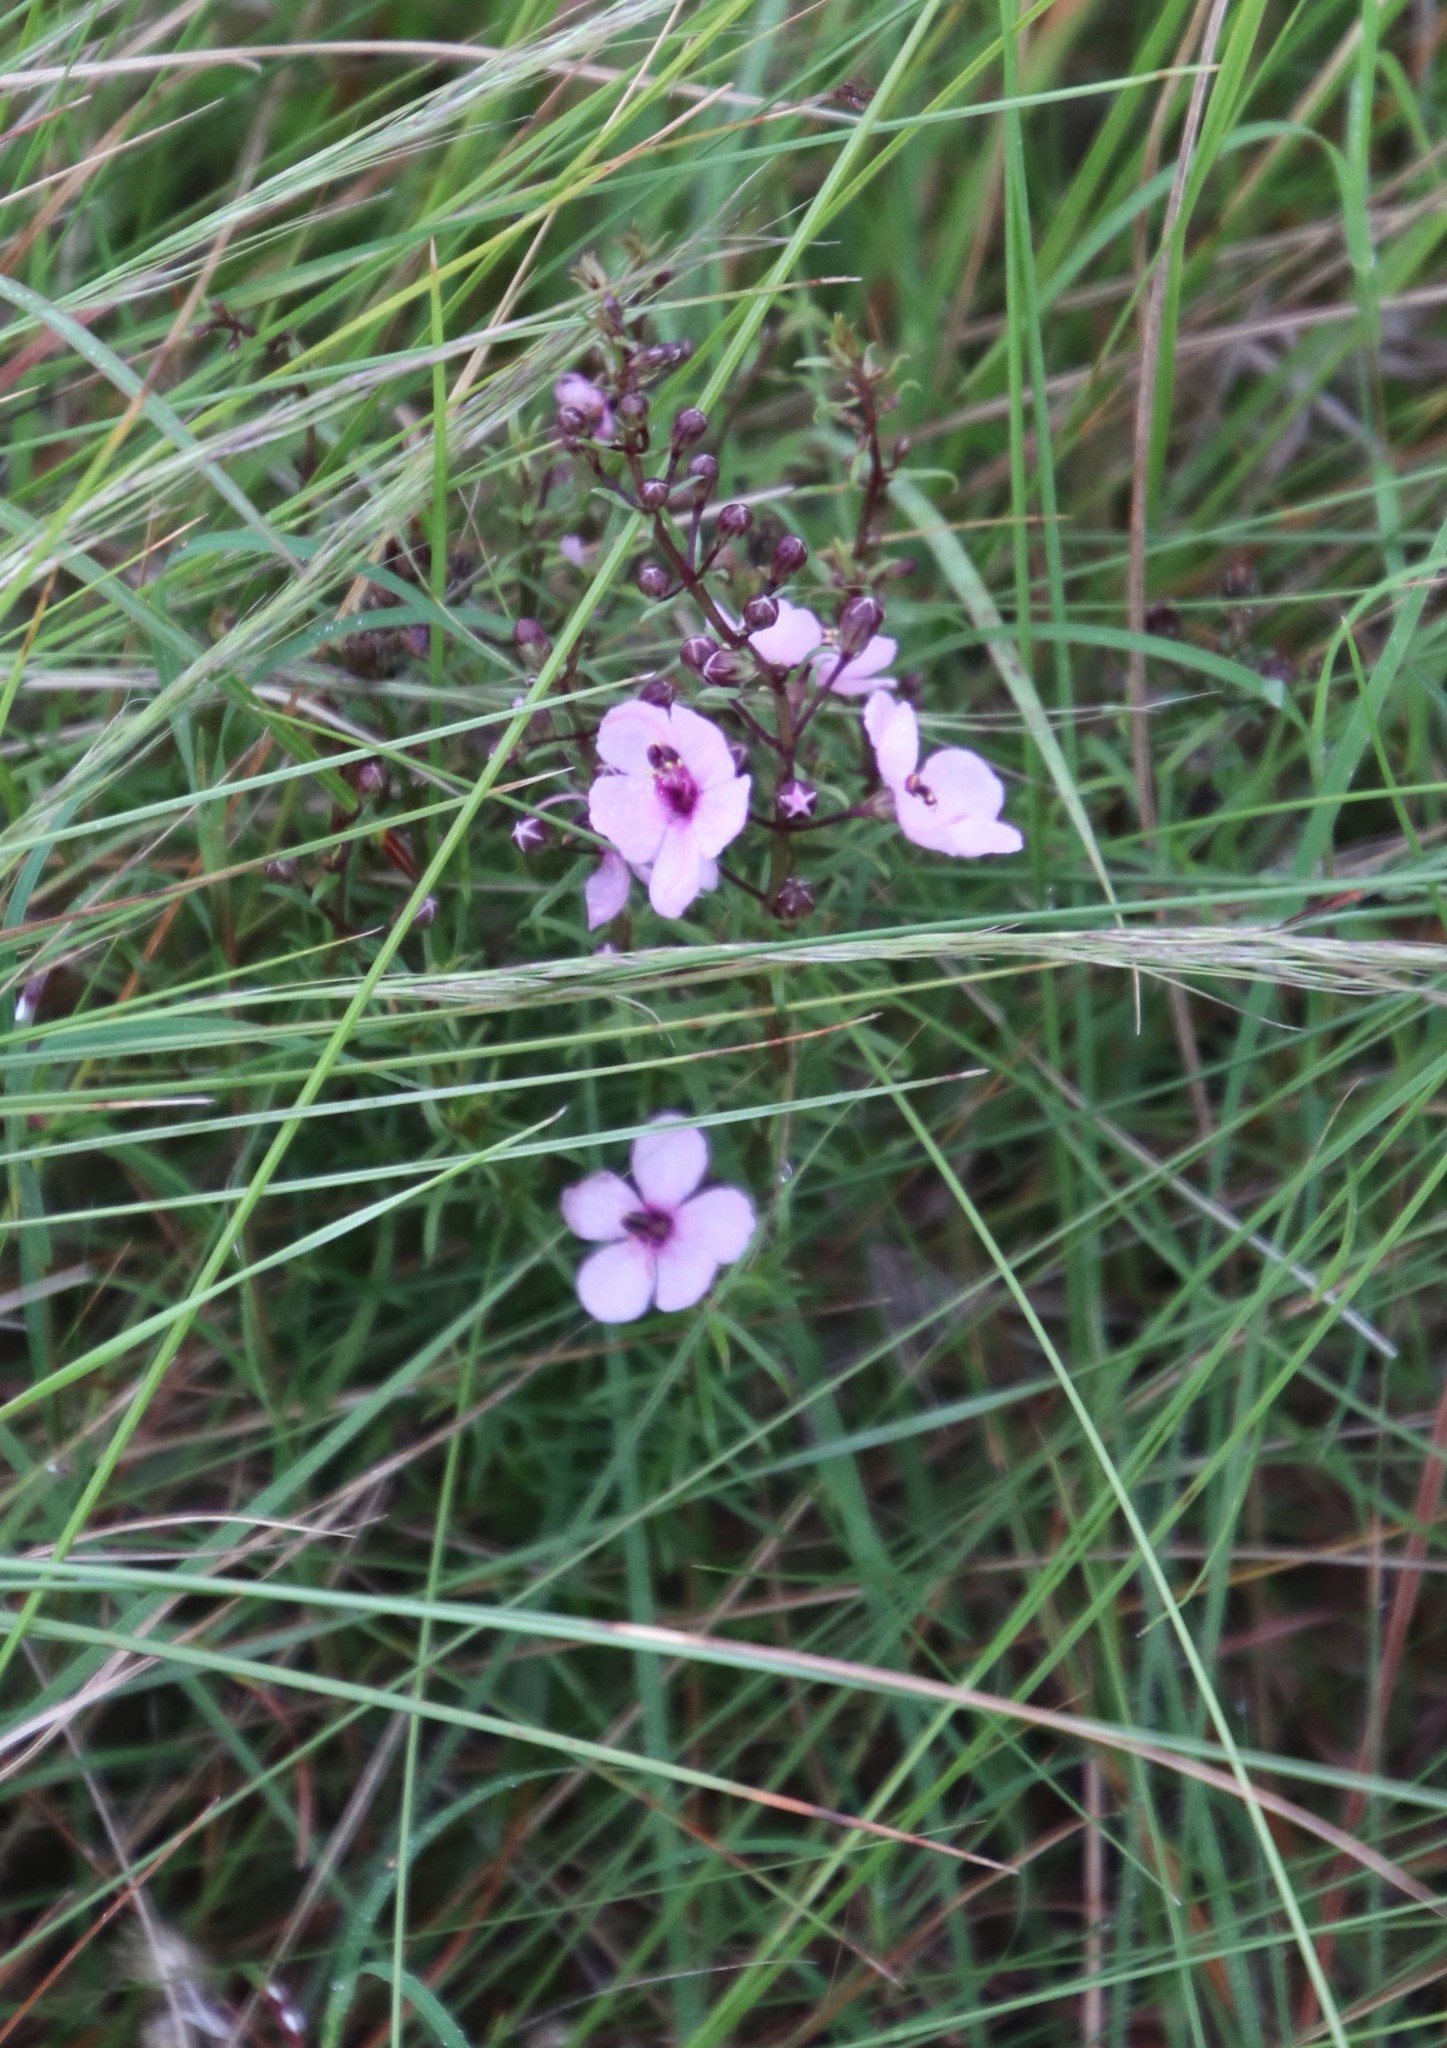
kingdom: Plantae
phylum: Tracheophyta
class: Magnoliopsida
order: Lamiales
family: Orobanchaceae
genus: Sopubia
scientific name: Sopubia simplex
